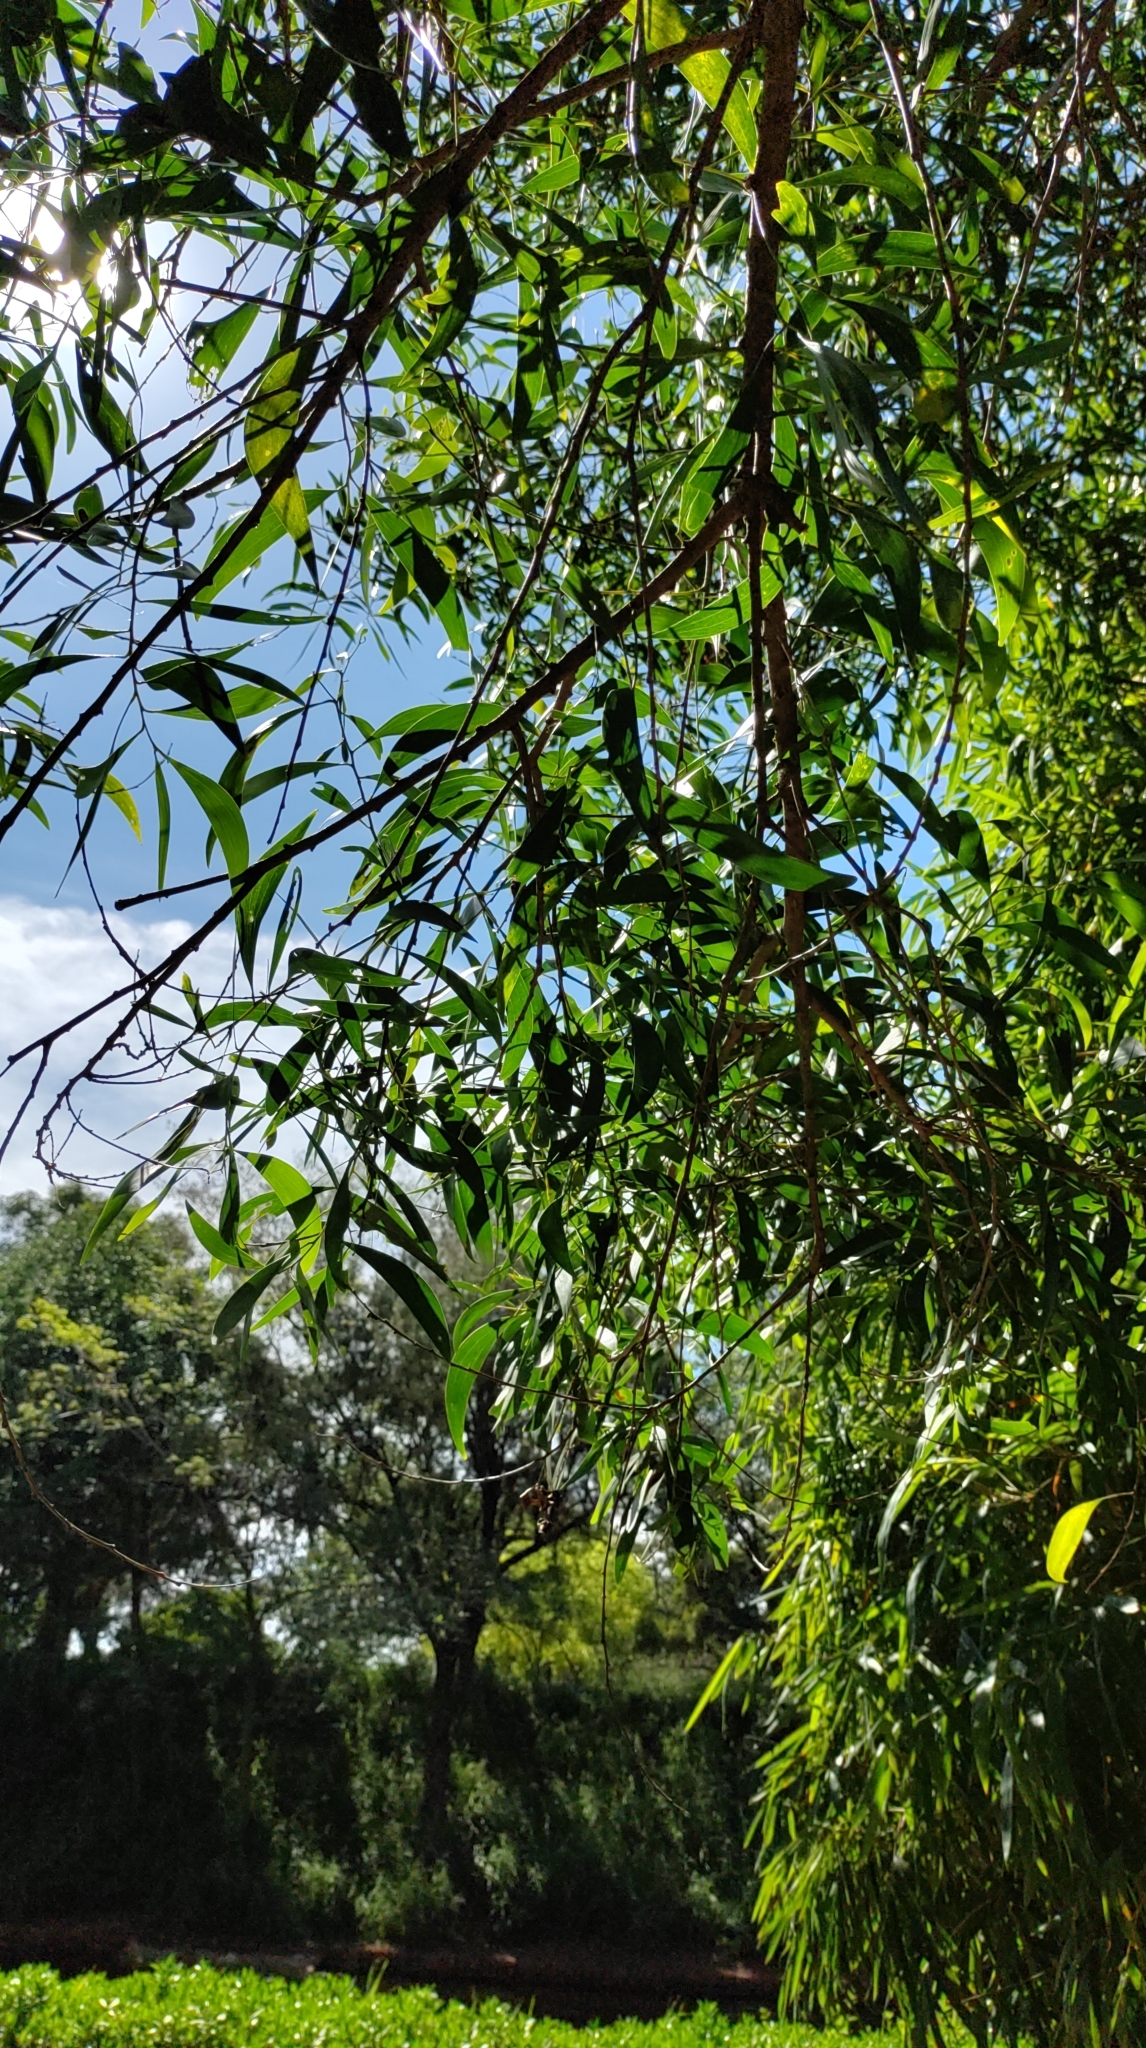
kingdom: Plantae
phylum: Tracheophyta
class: Magnoliopsida
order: Fabales
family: Fabaceae
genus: Acacia
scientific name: Acacia auriculiformis
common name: Earleaf acacia
